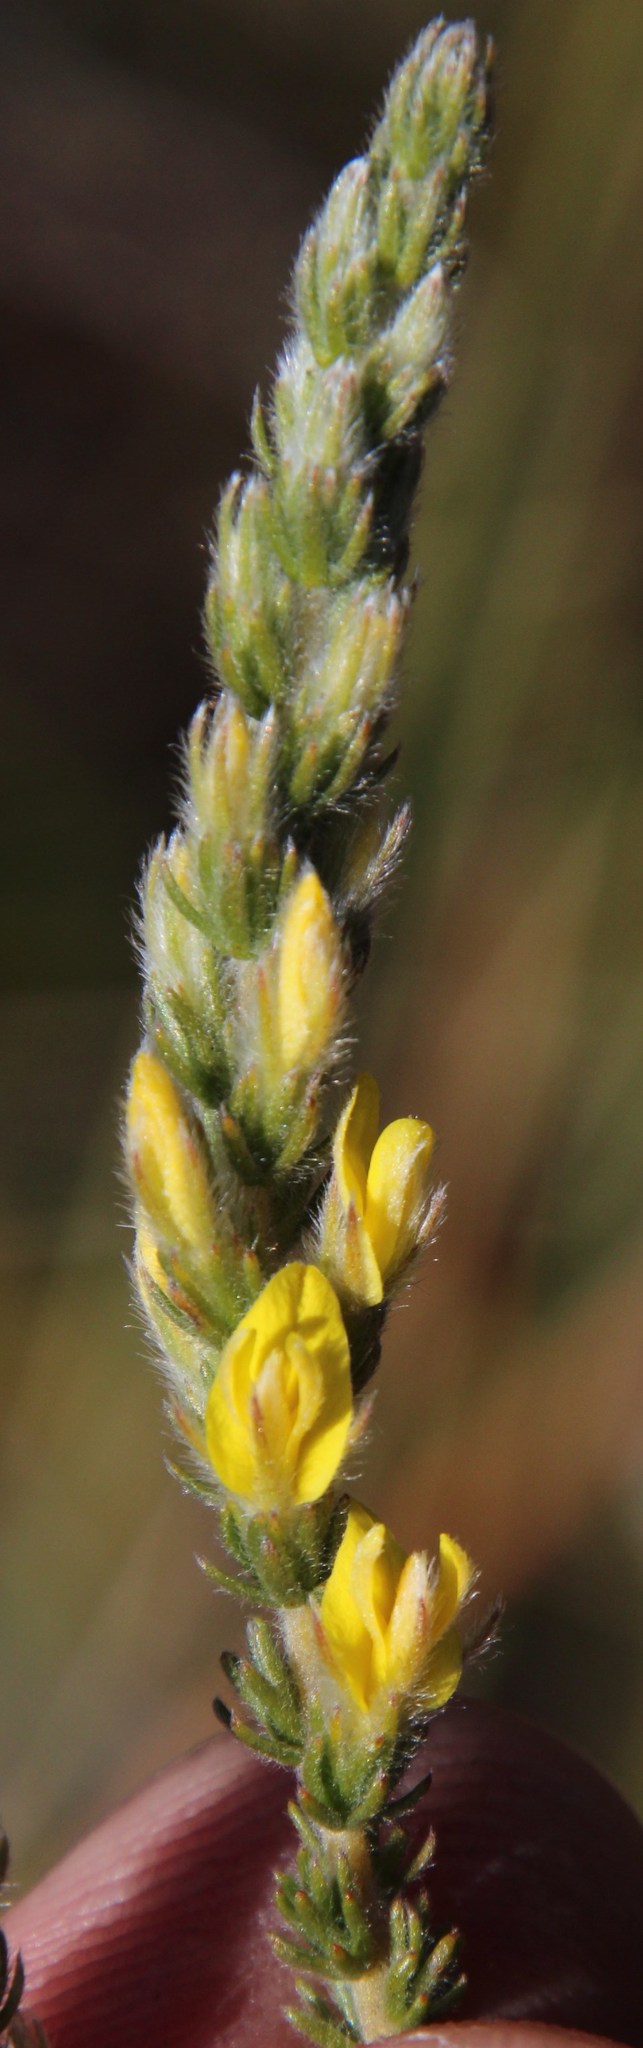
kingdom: Plantae
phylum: Tracheophyta
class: Magnoliopsida
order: Fabales
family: Fabaceae
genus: Aspalathus
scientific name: Aspalathus ericifolia
